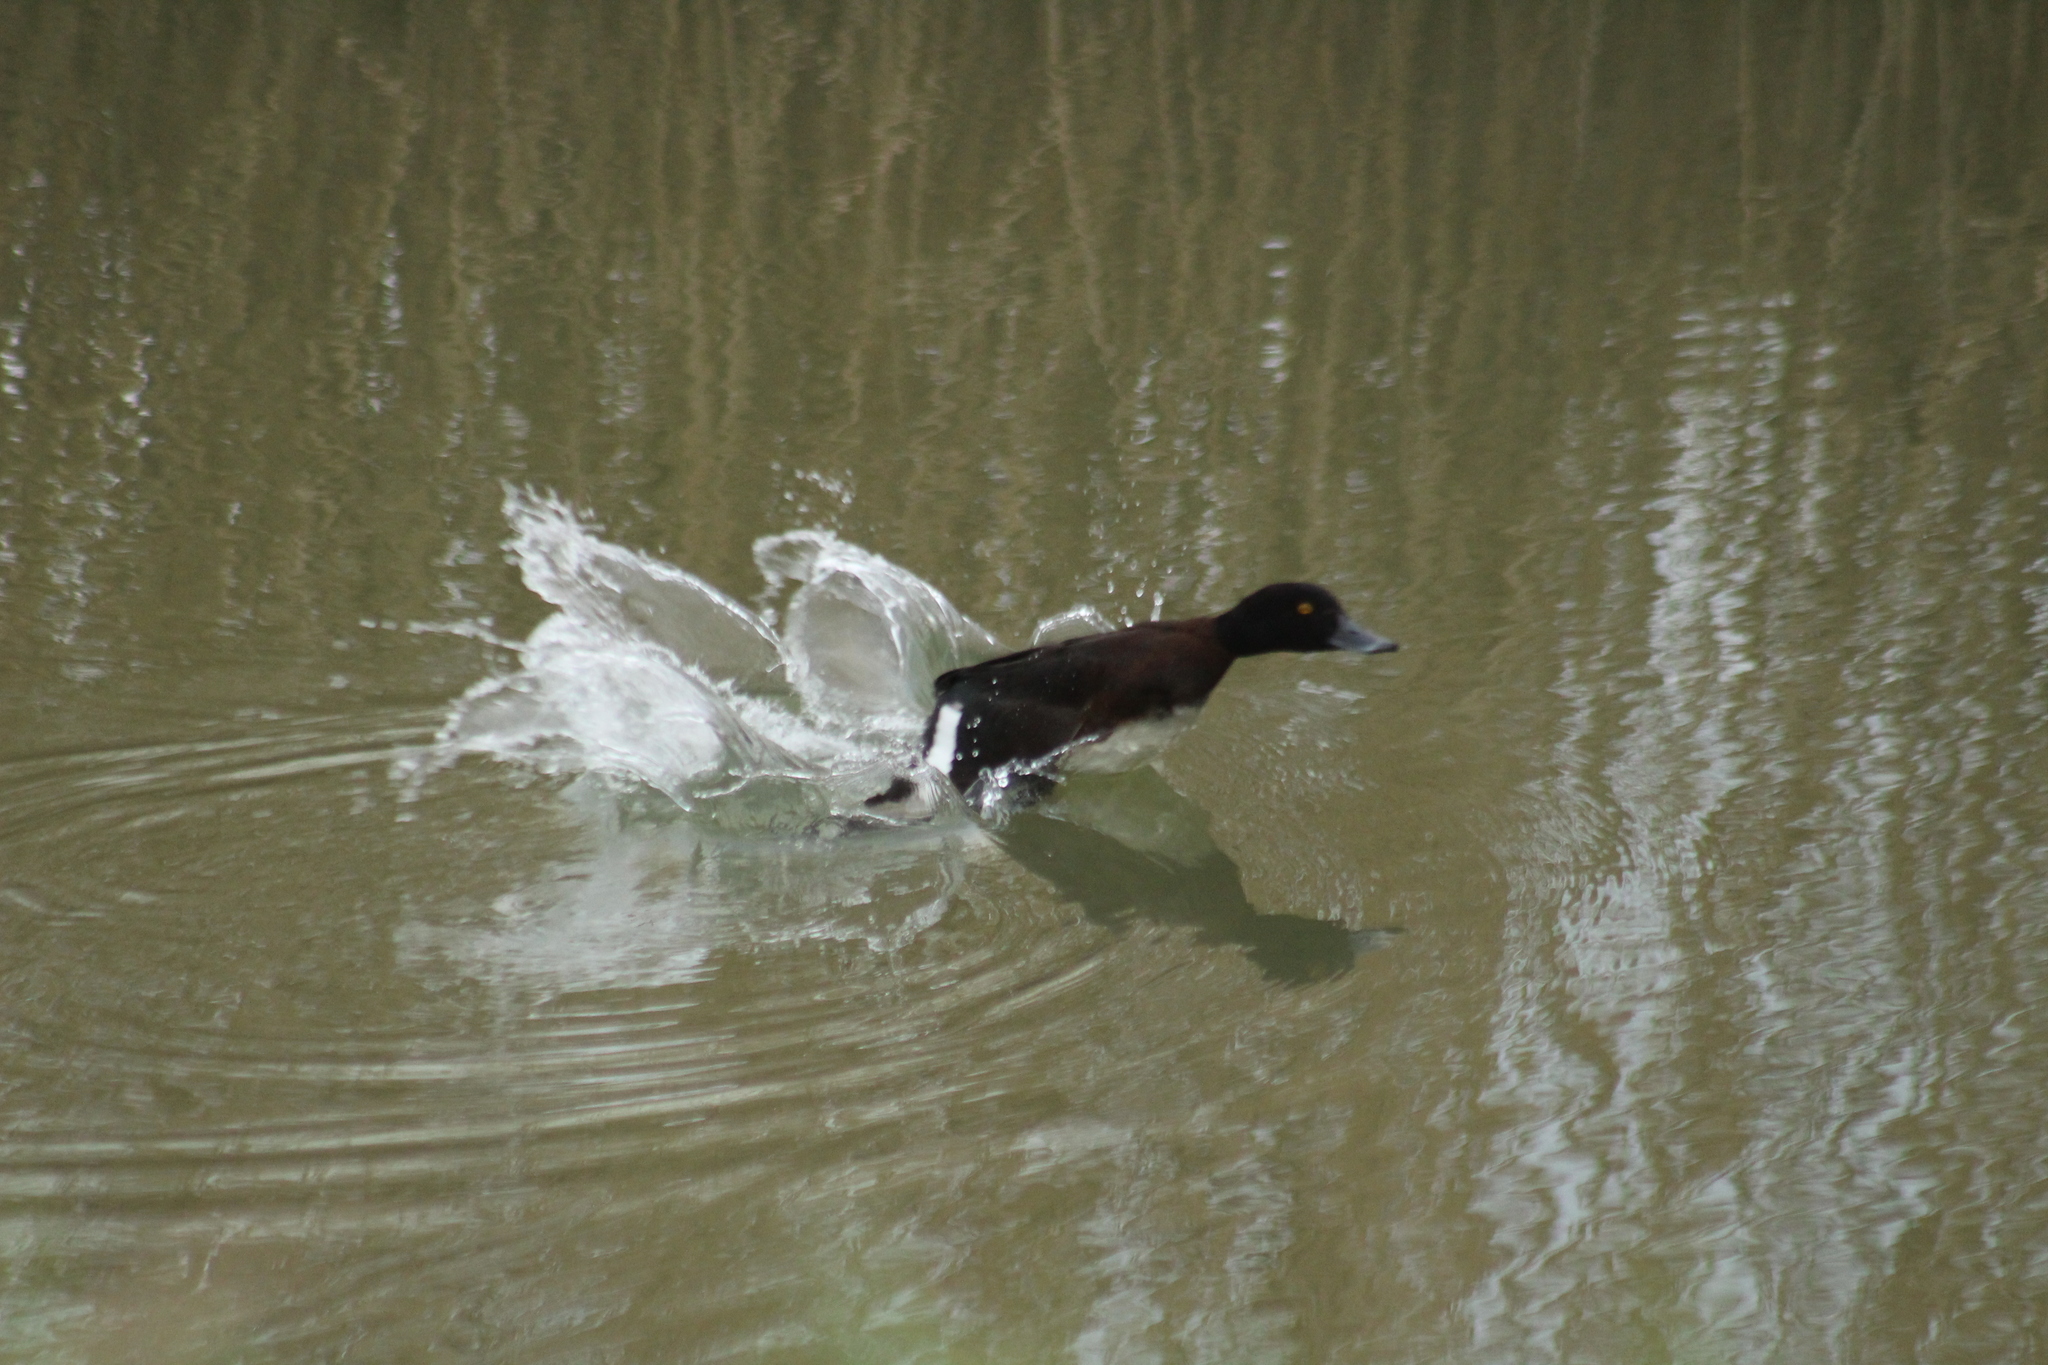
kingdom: Animalia
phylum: Chordata
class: Aves
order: Anseriformes
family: Anatidae
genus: Aythya
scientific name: Aythya fuligula
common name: Tufted duck
